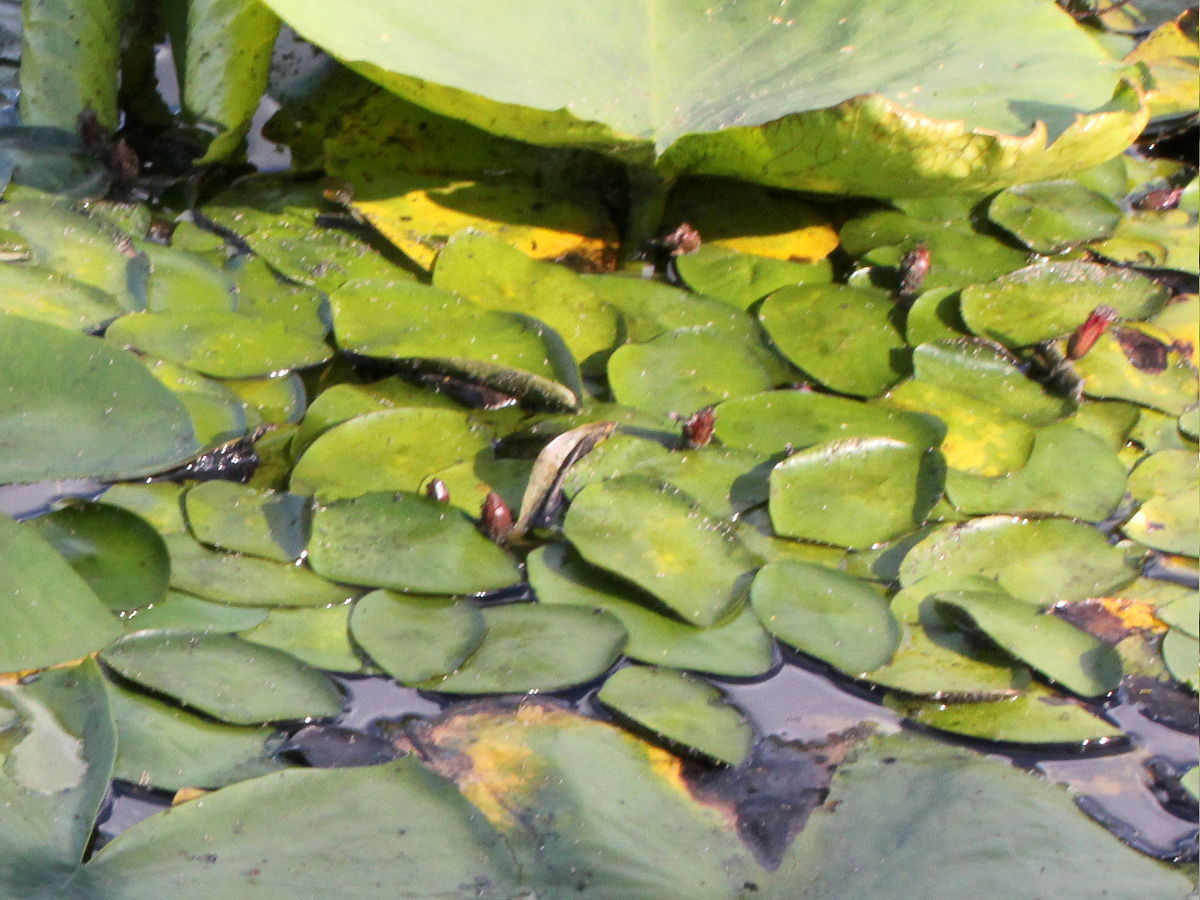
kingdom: Plantae
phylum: Tracheophyta
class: Magnoliopsida
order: Nymphaeales
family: Cabombaceae
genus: Brasenia
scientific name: Brasenia schreberi
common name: Water-shield
